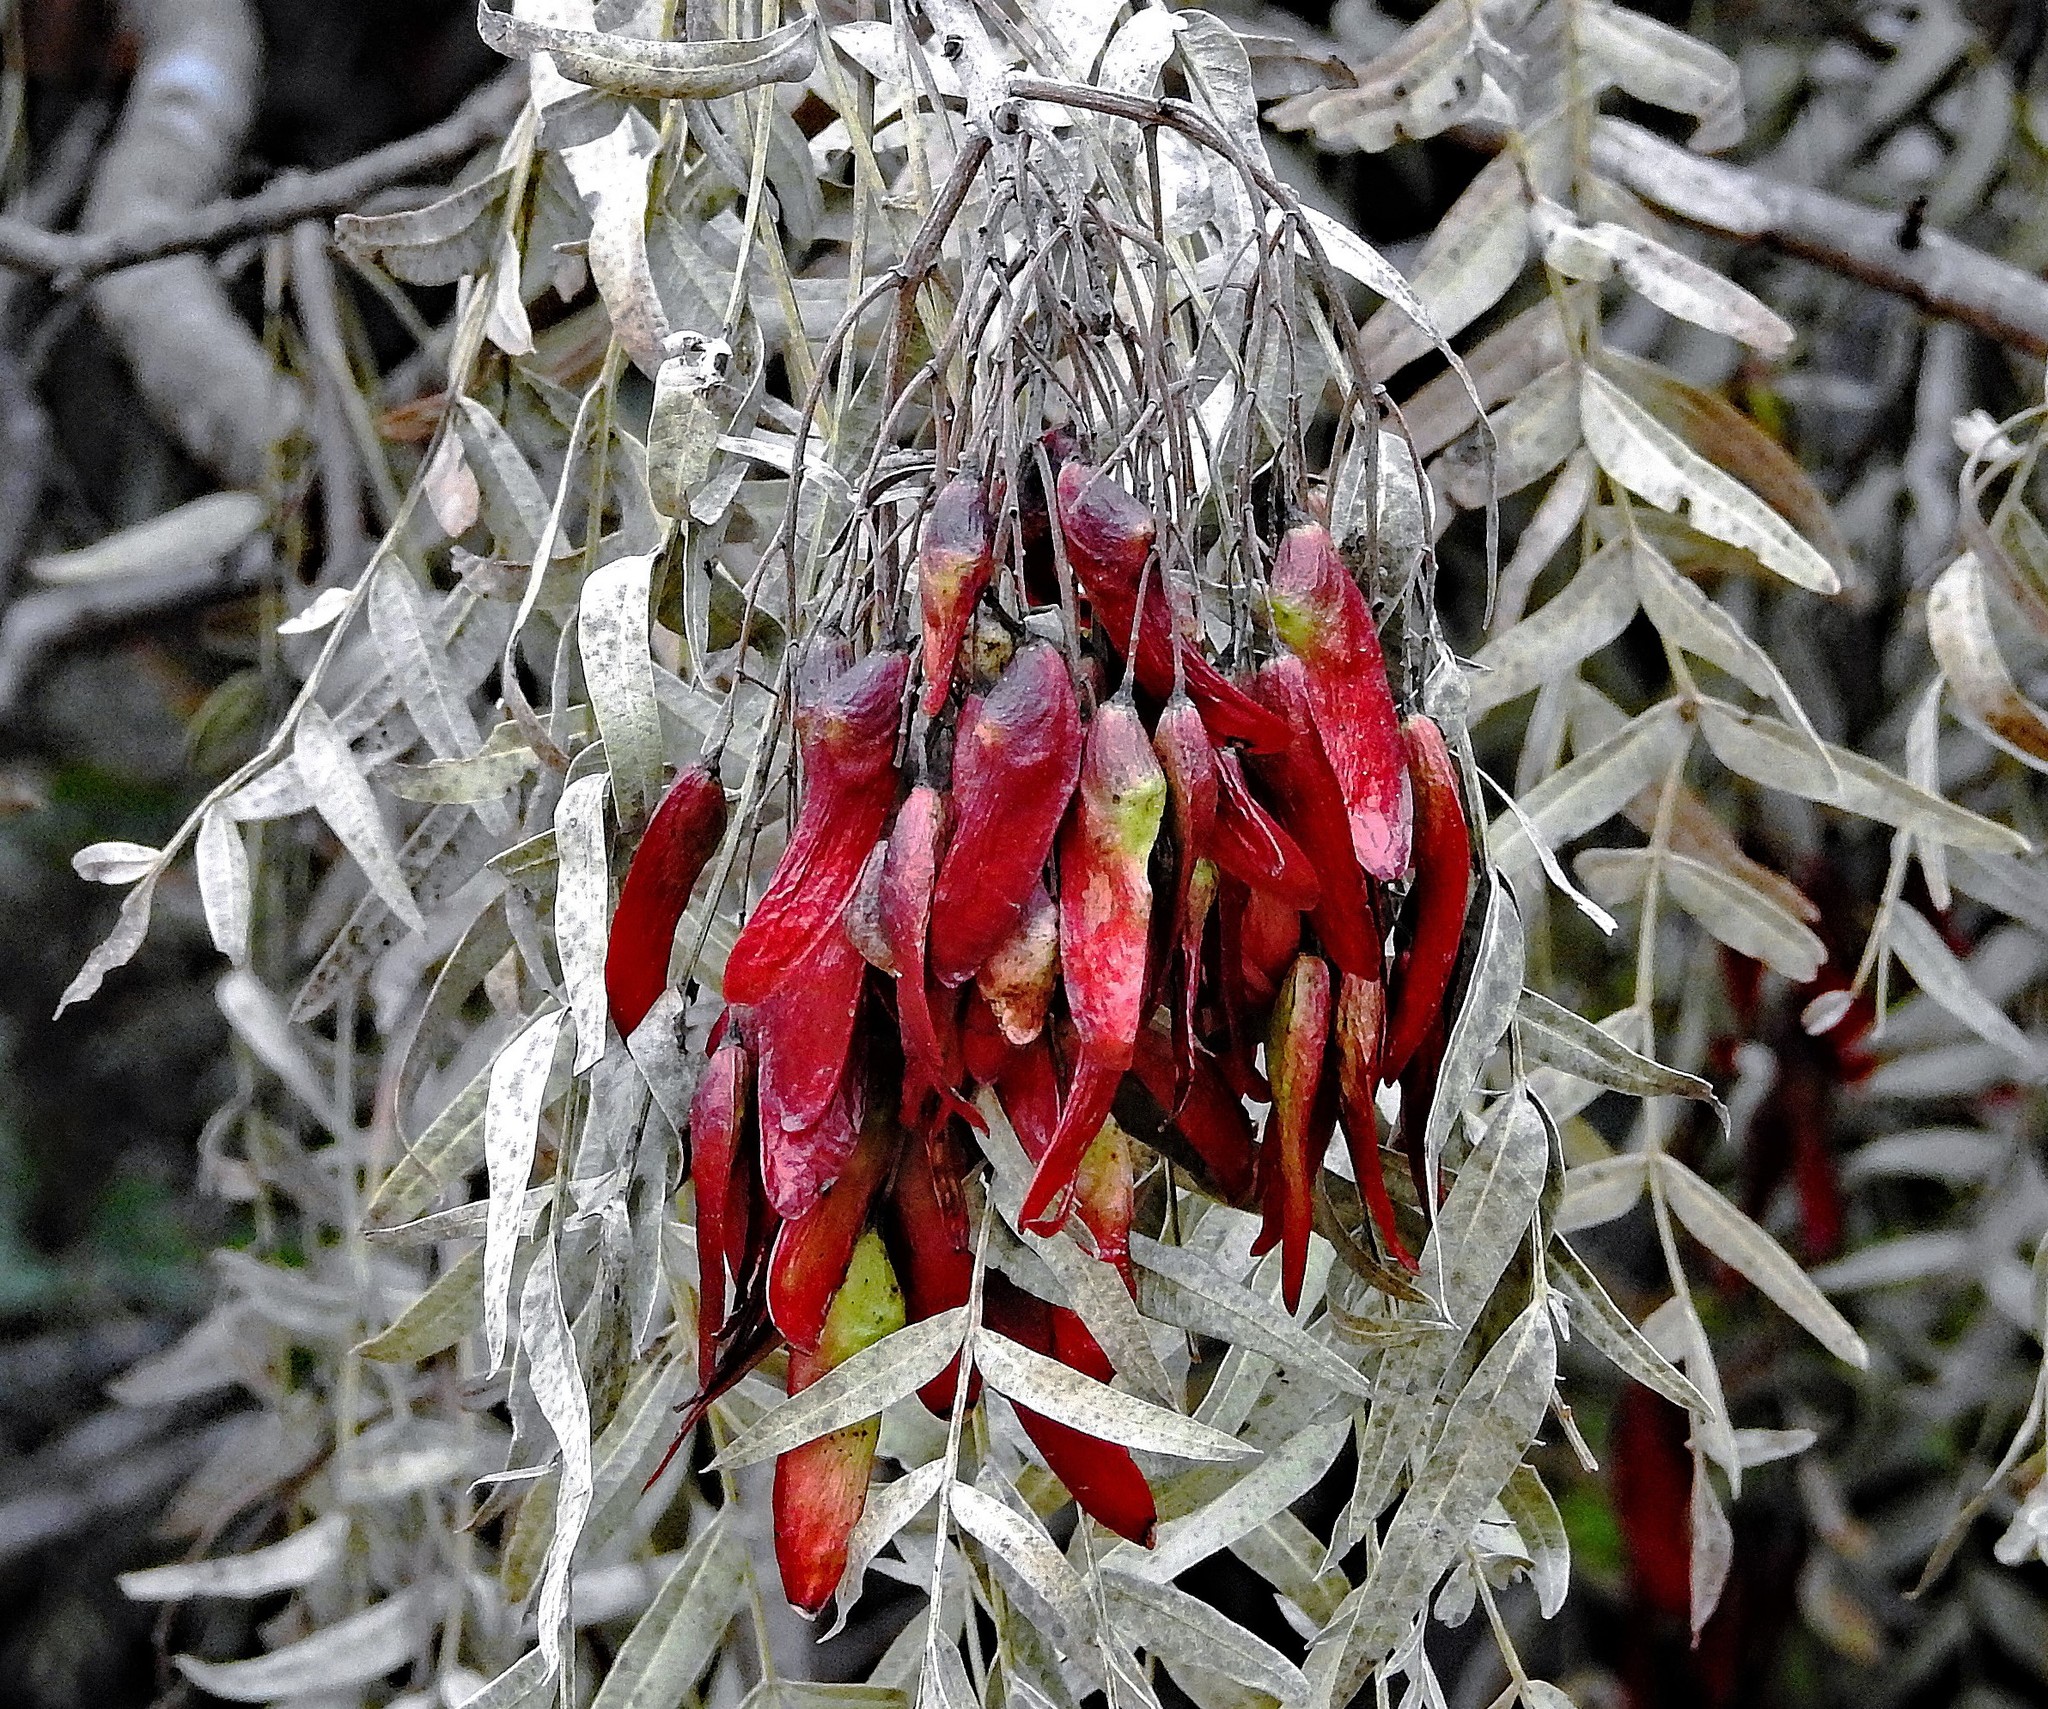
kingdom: Plantae
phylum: Tracheophyta
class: Magnoliopsida
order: Sapindales
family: Anacardiaceae
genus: Schinopsis
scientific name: Schinopsis lorentzii
